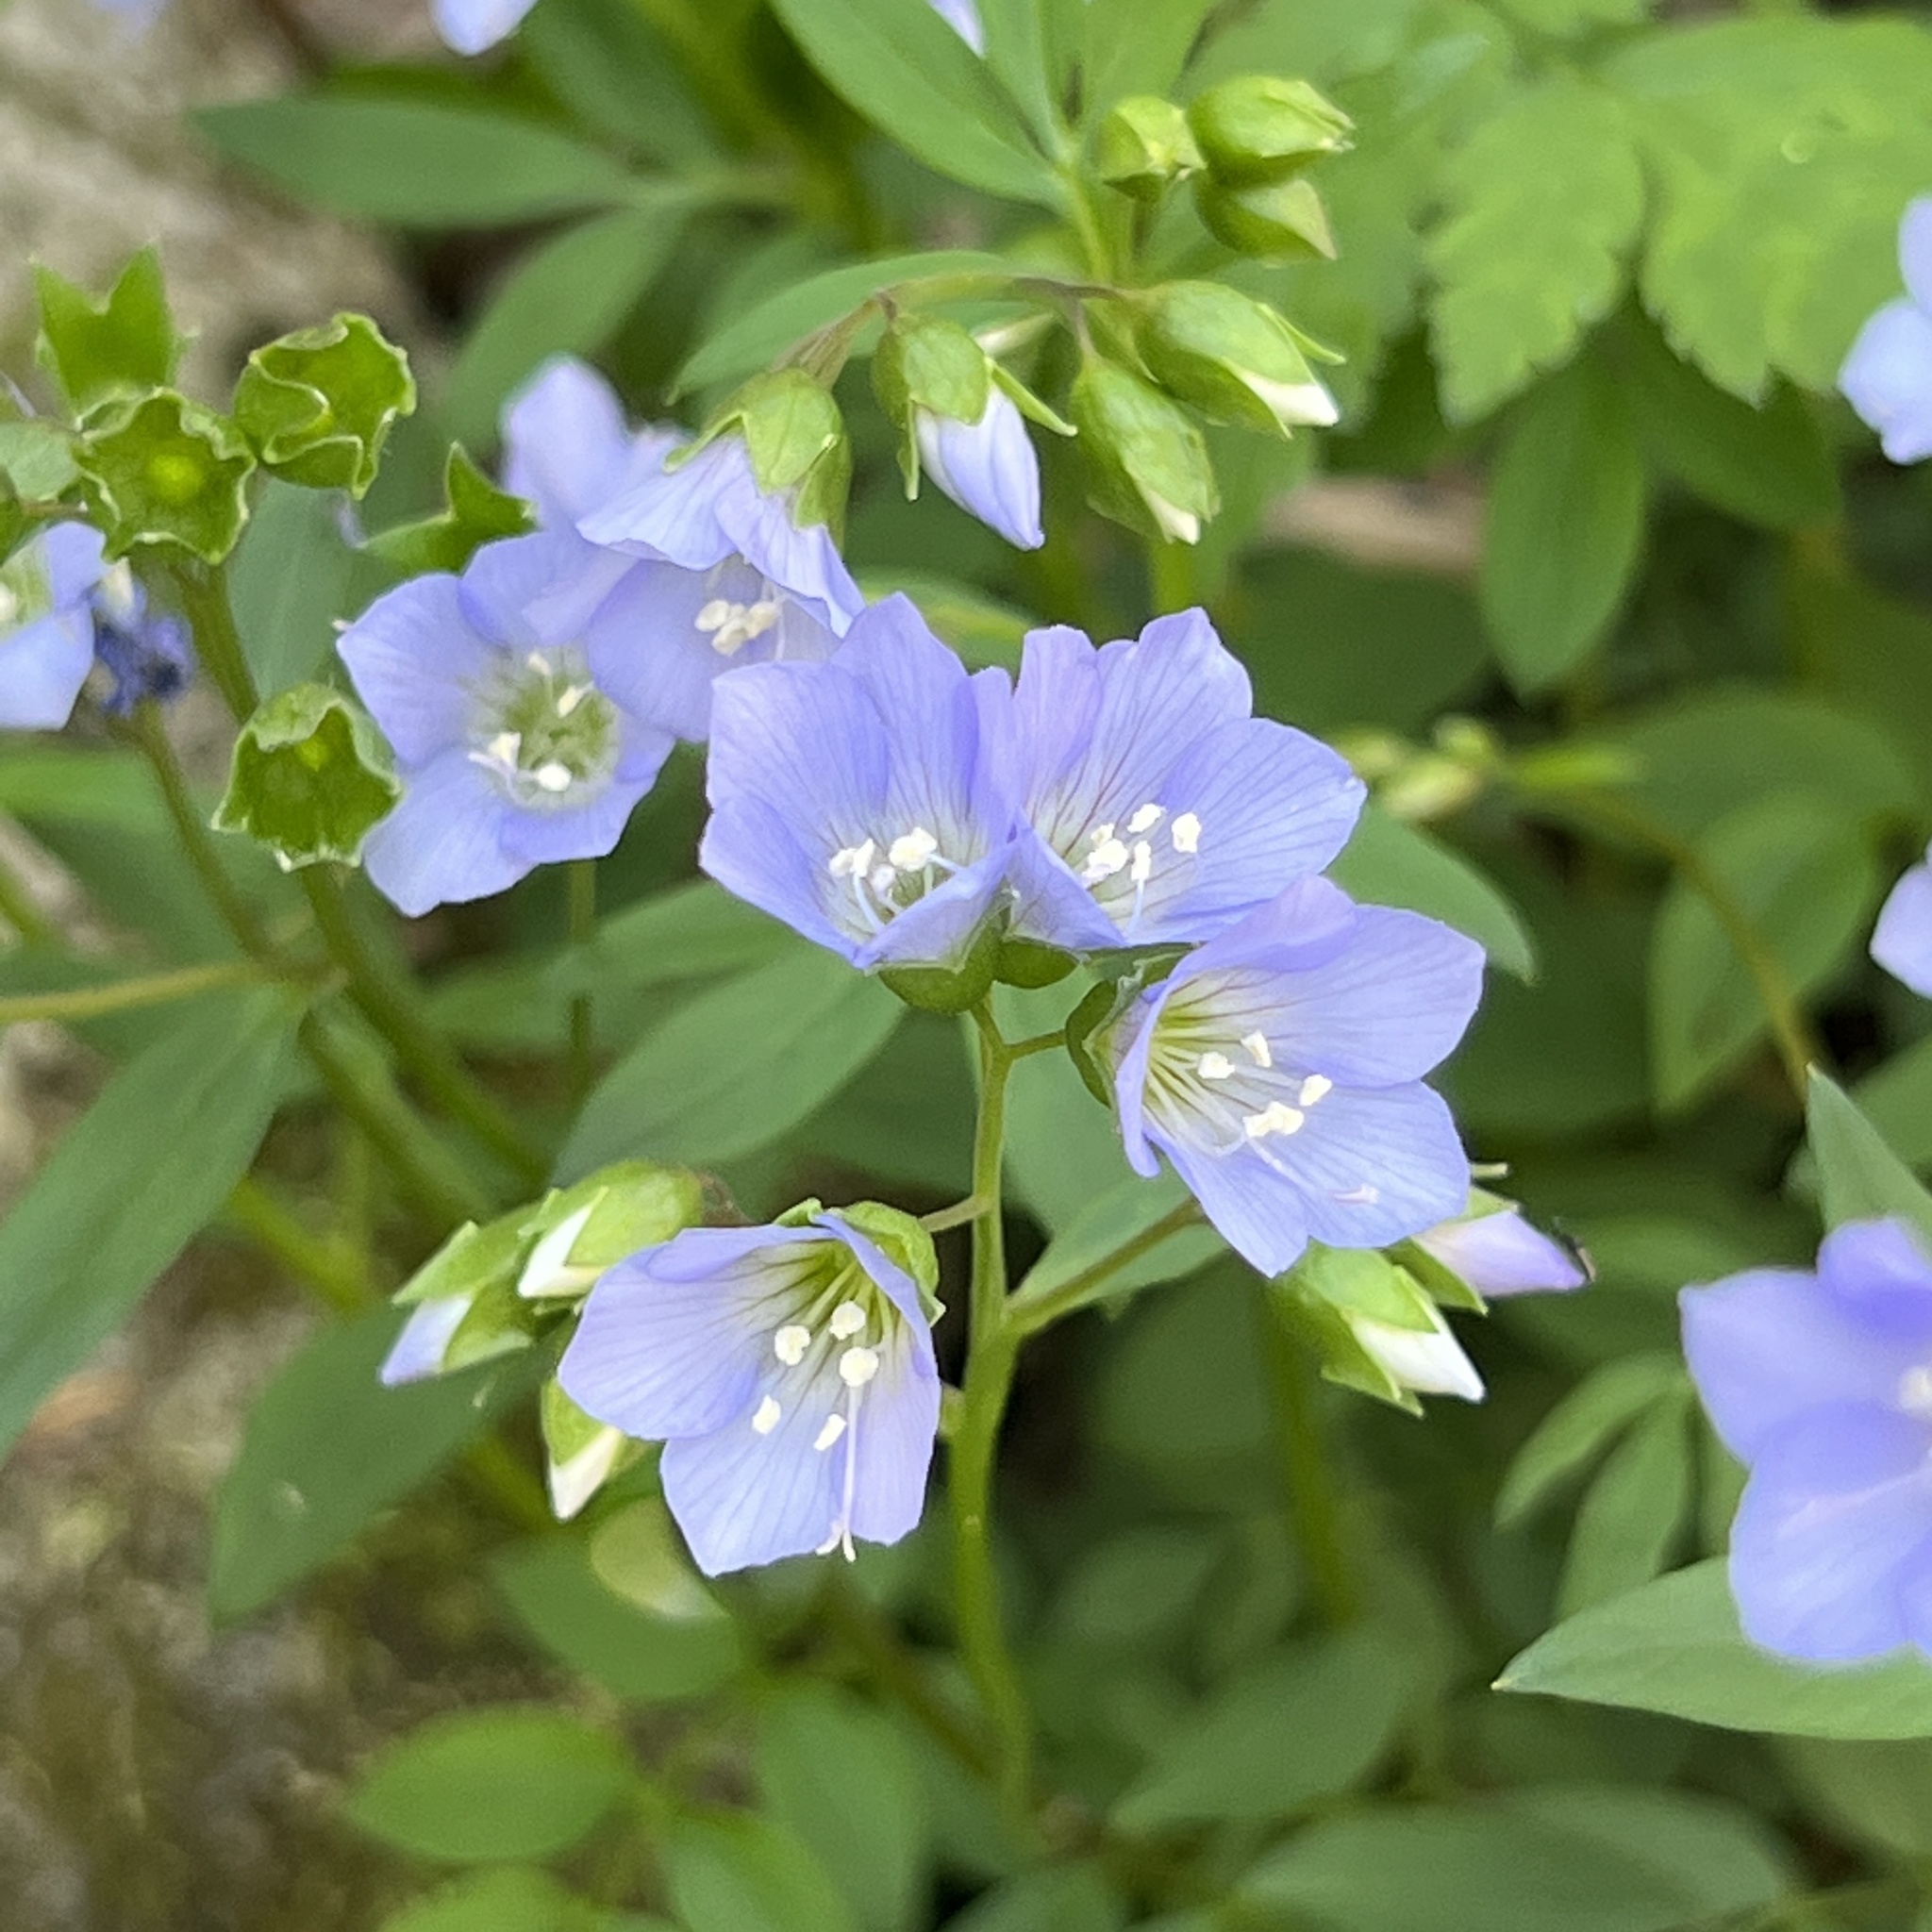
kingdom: Plantae
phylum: Tracheophyta
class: Magnoliopsida
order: Ericales
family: Polemoniaceae
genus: Polemonium
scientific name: Polemonium reptans
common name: Creeping jacob's-ladder
